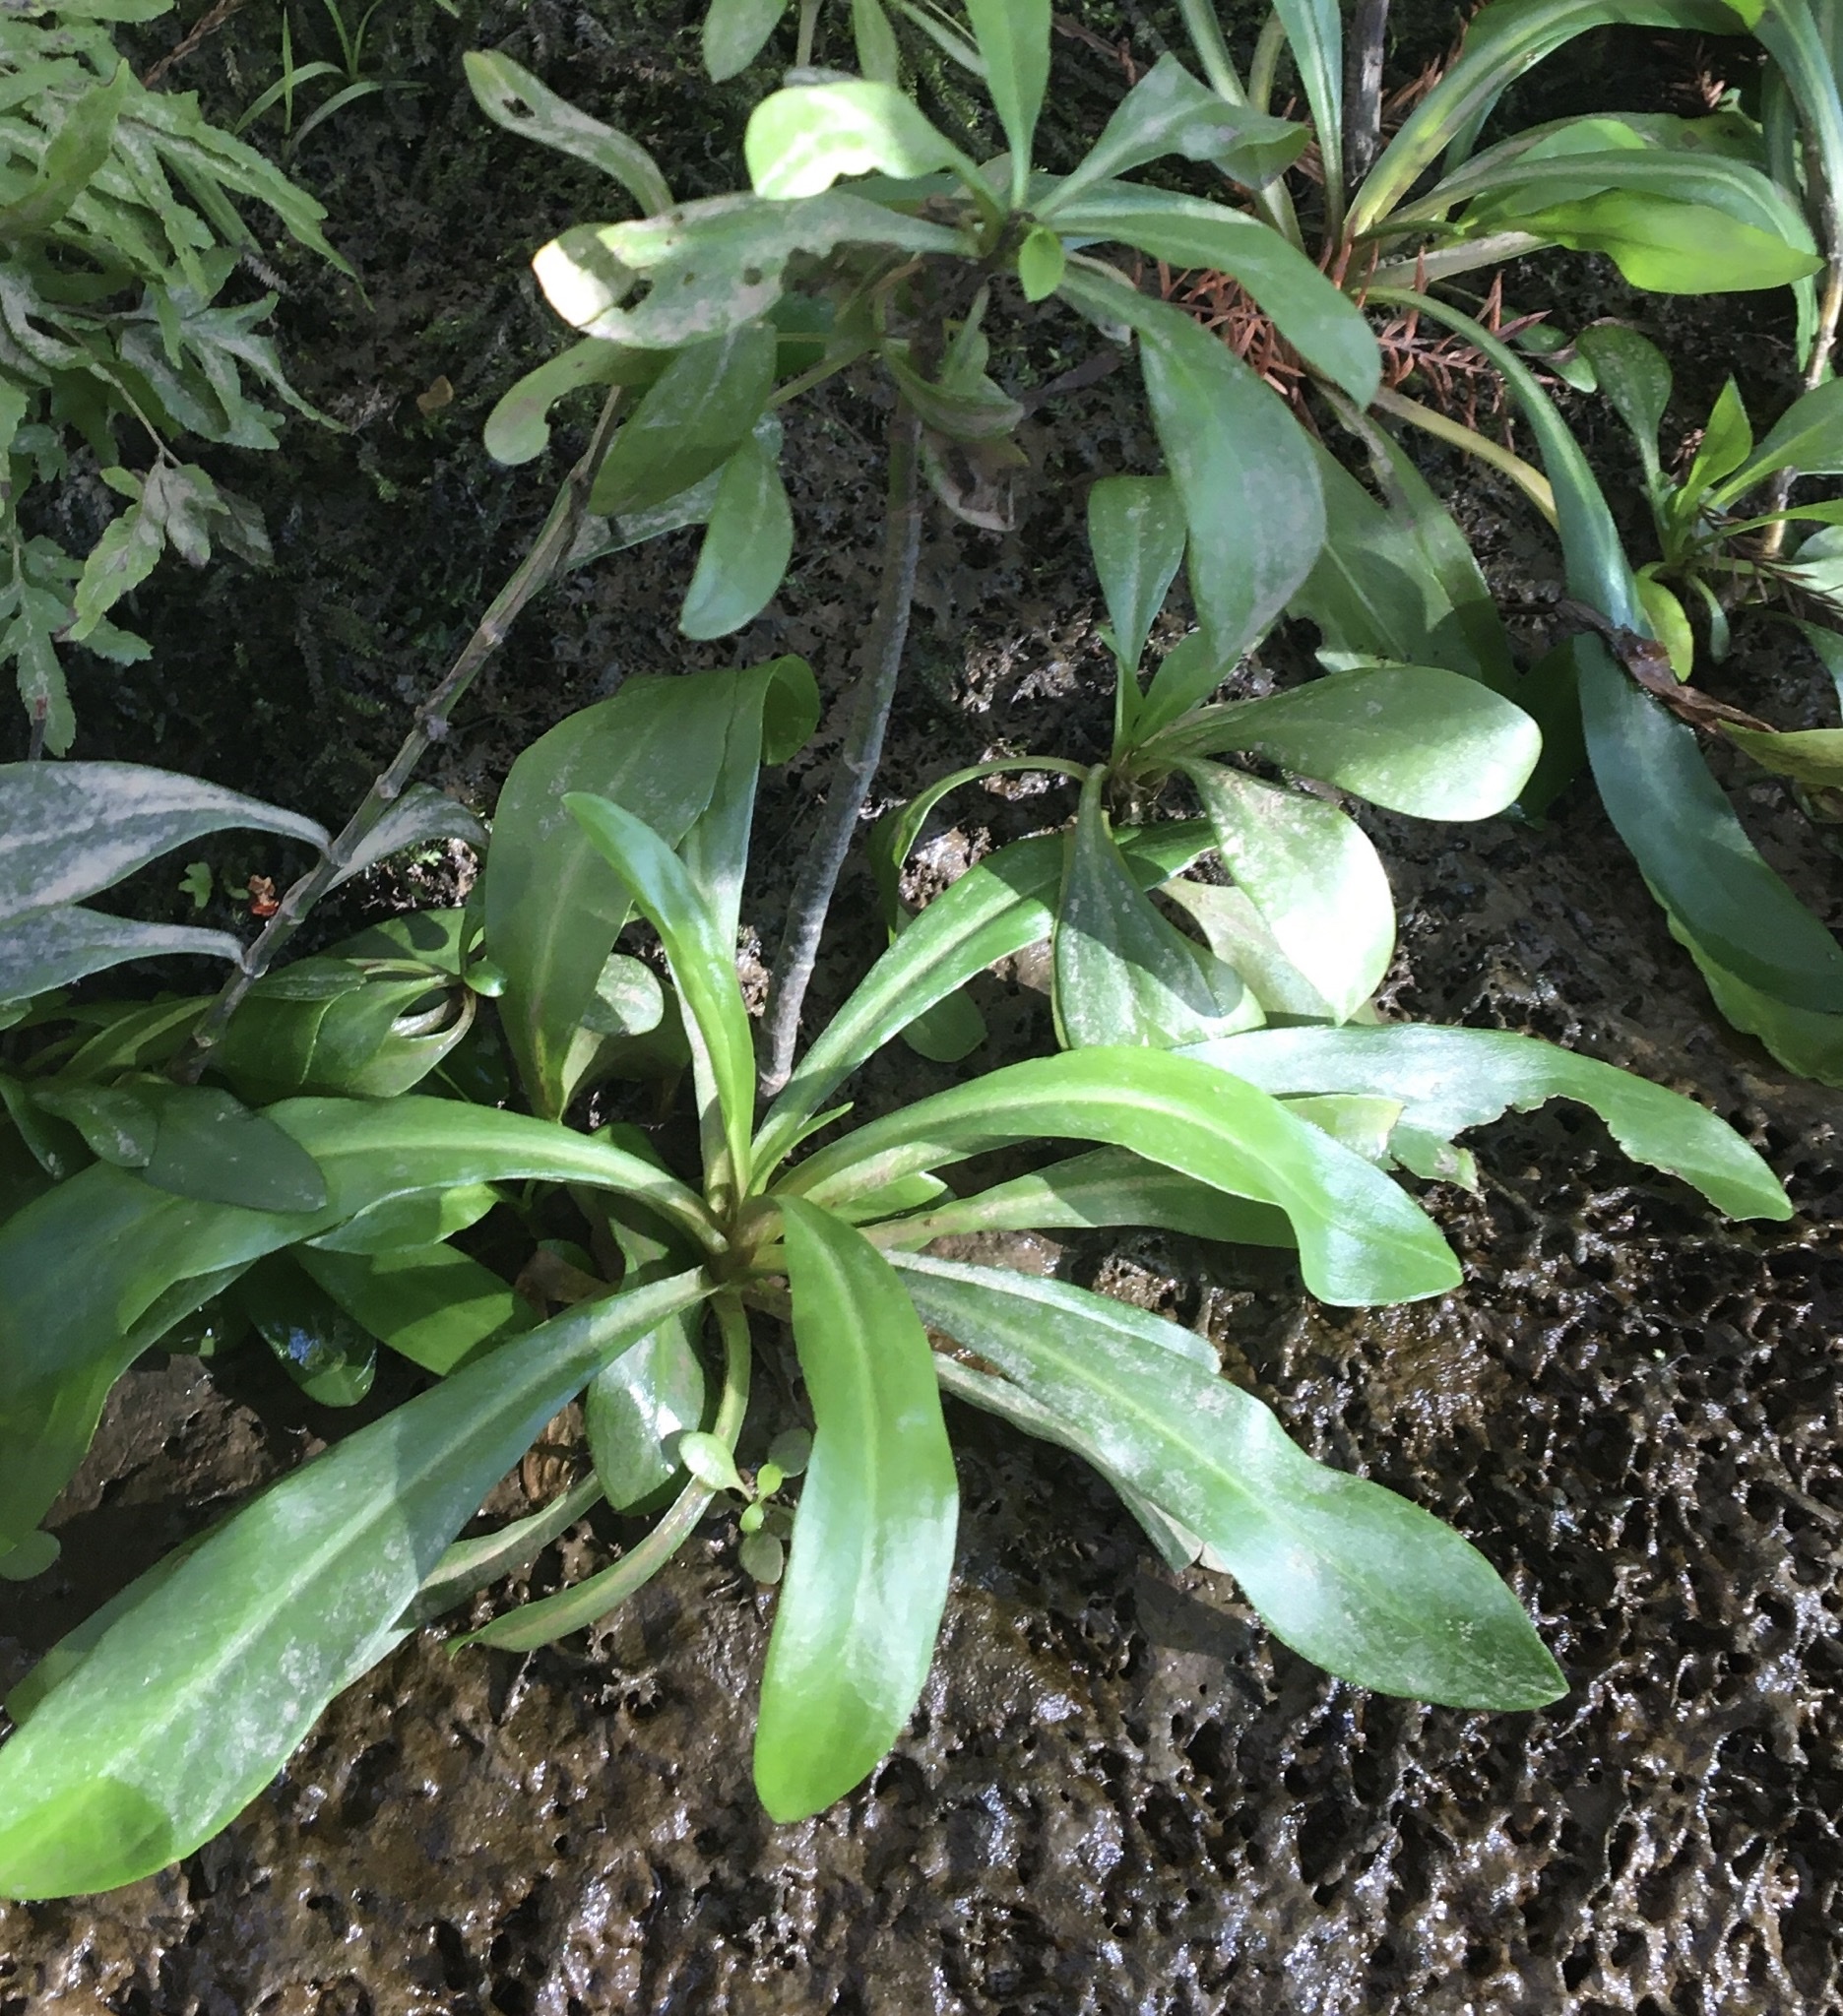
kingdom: Plantae
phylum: Tracheophyta
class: Magnoliopsida
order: Ericales
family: Primulaceae
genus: Samolus
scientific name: Samolus parviflorus
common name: False water pimpernel
